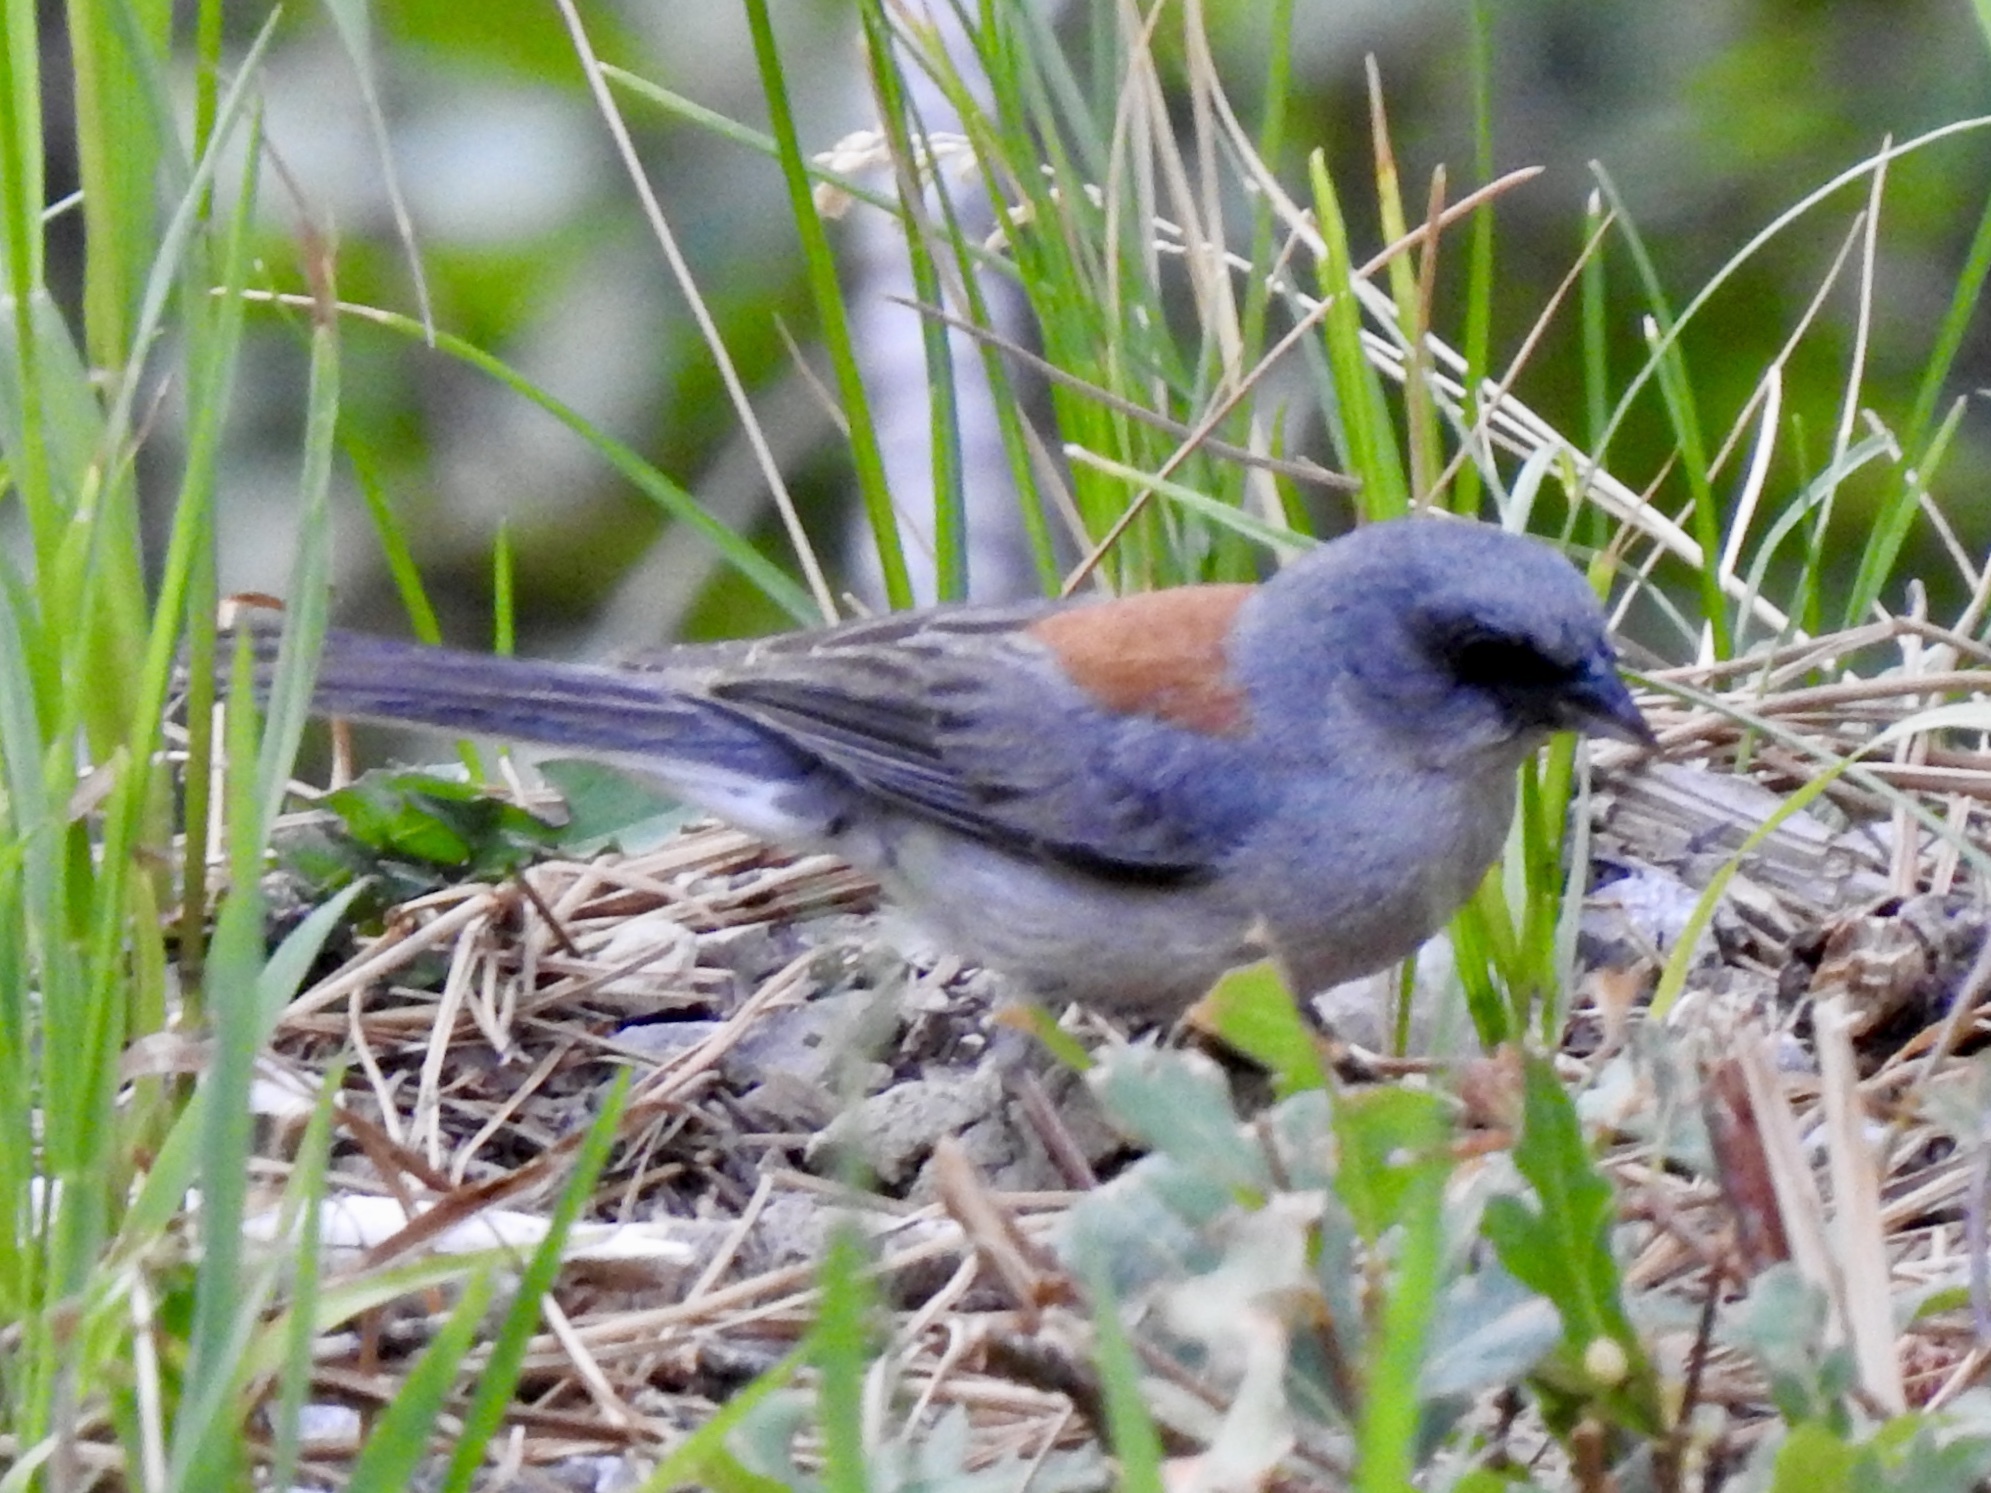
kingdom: Animalia
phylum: Chordata
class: Aves
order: Passeriformes
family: Passerellidae
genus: Junco
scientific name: Junco hyemalis
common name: Dark-eyed junco
